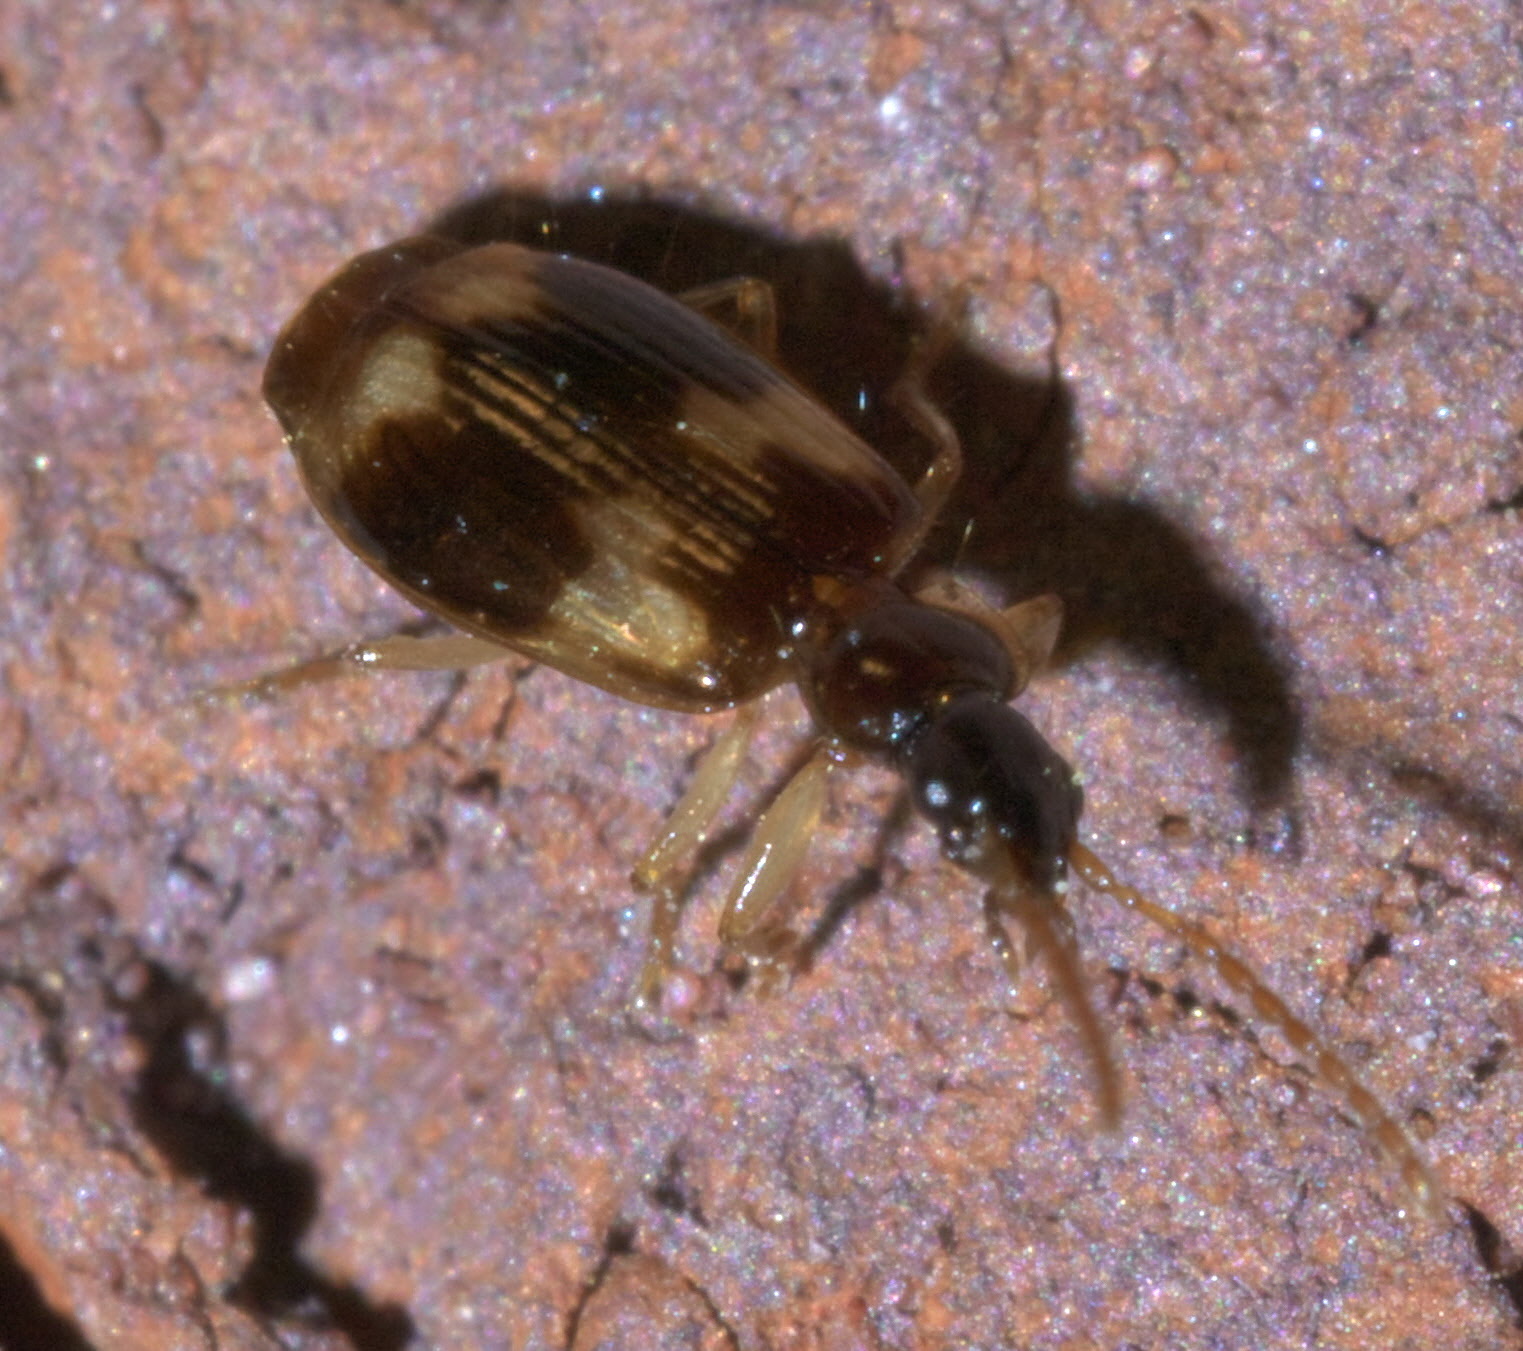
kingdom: Animalia
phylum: Arthropoda
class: Insecta
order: Coleoptera
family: Carabidae
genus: Lebia
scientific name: Lebia lobulata
